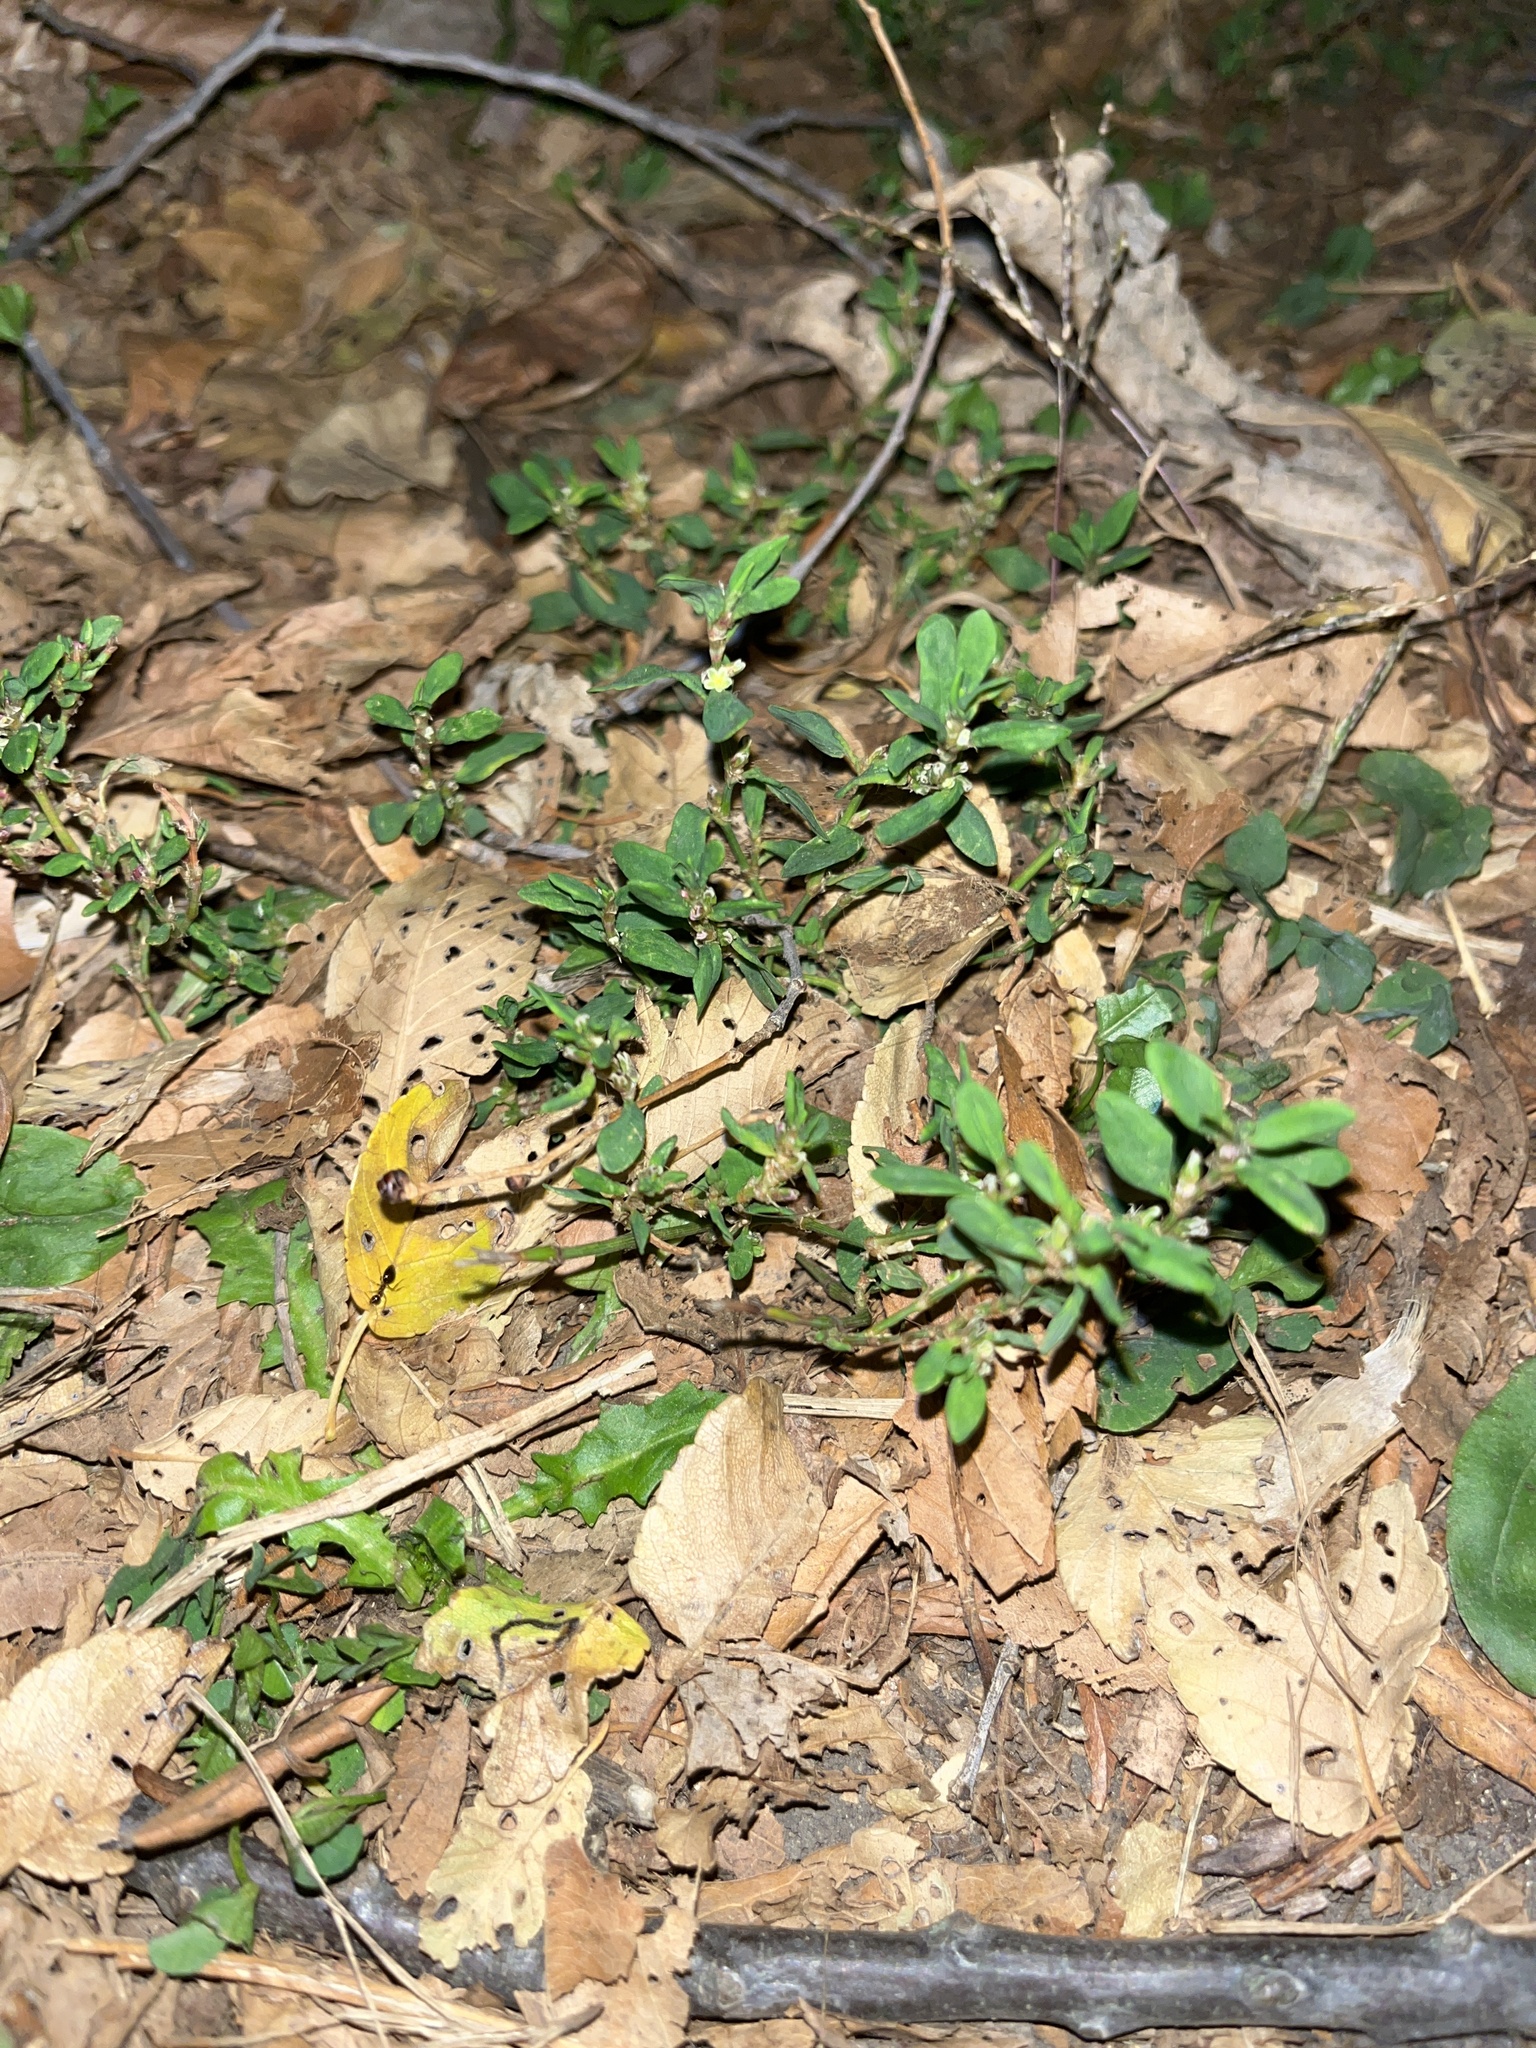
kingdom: Plantae
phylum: Tracheophyta
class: Magnoliopsida
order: Caryophyllales
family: Polygonaceae
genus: Polygonum
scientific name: Polygonum aviculare
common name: Prostrate knotweed
